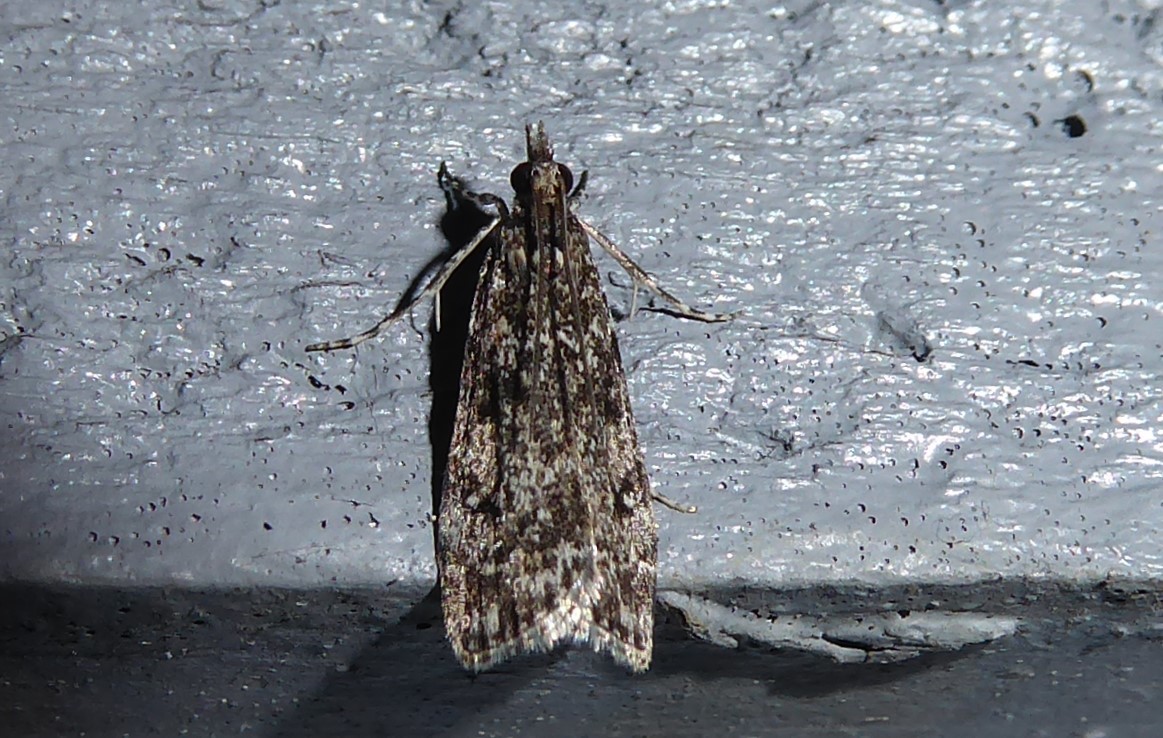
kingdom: Animalia
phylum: Arthropoda
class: Insecta
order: Lepidoptera
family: Crambidae
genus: Eudonia
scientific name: Eudonia philerga
